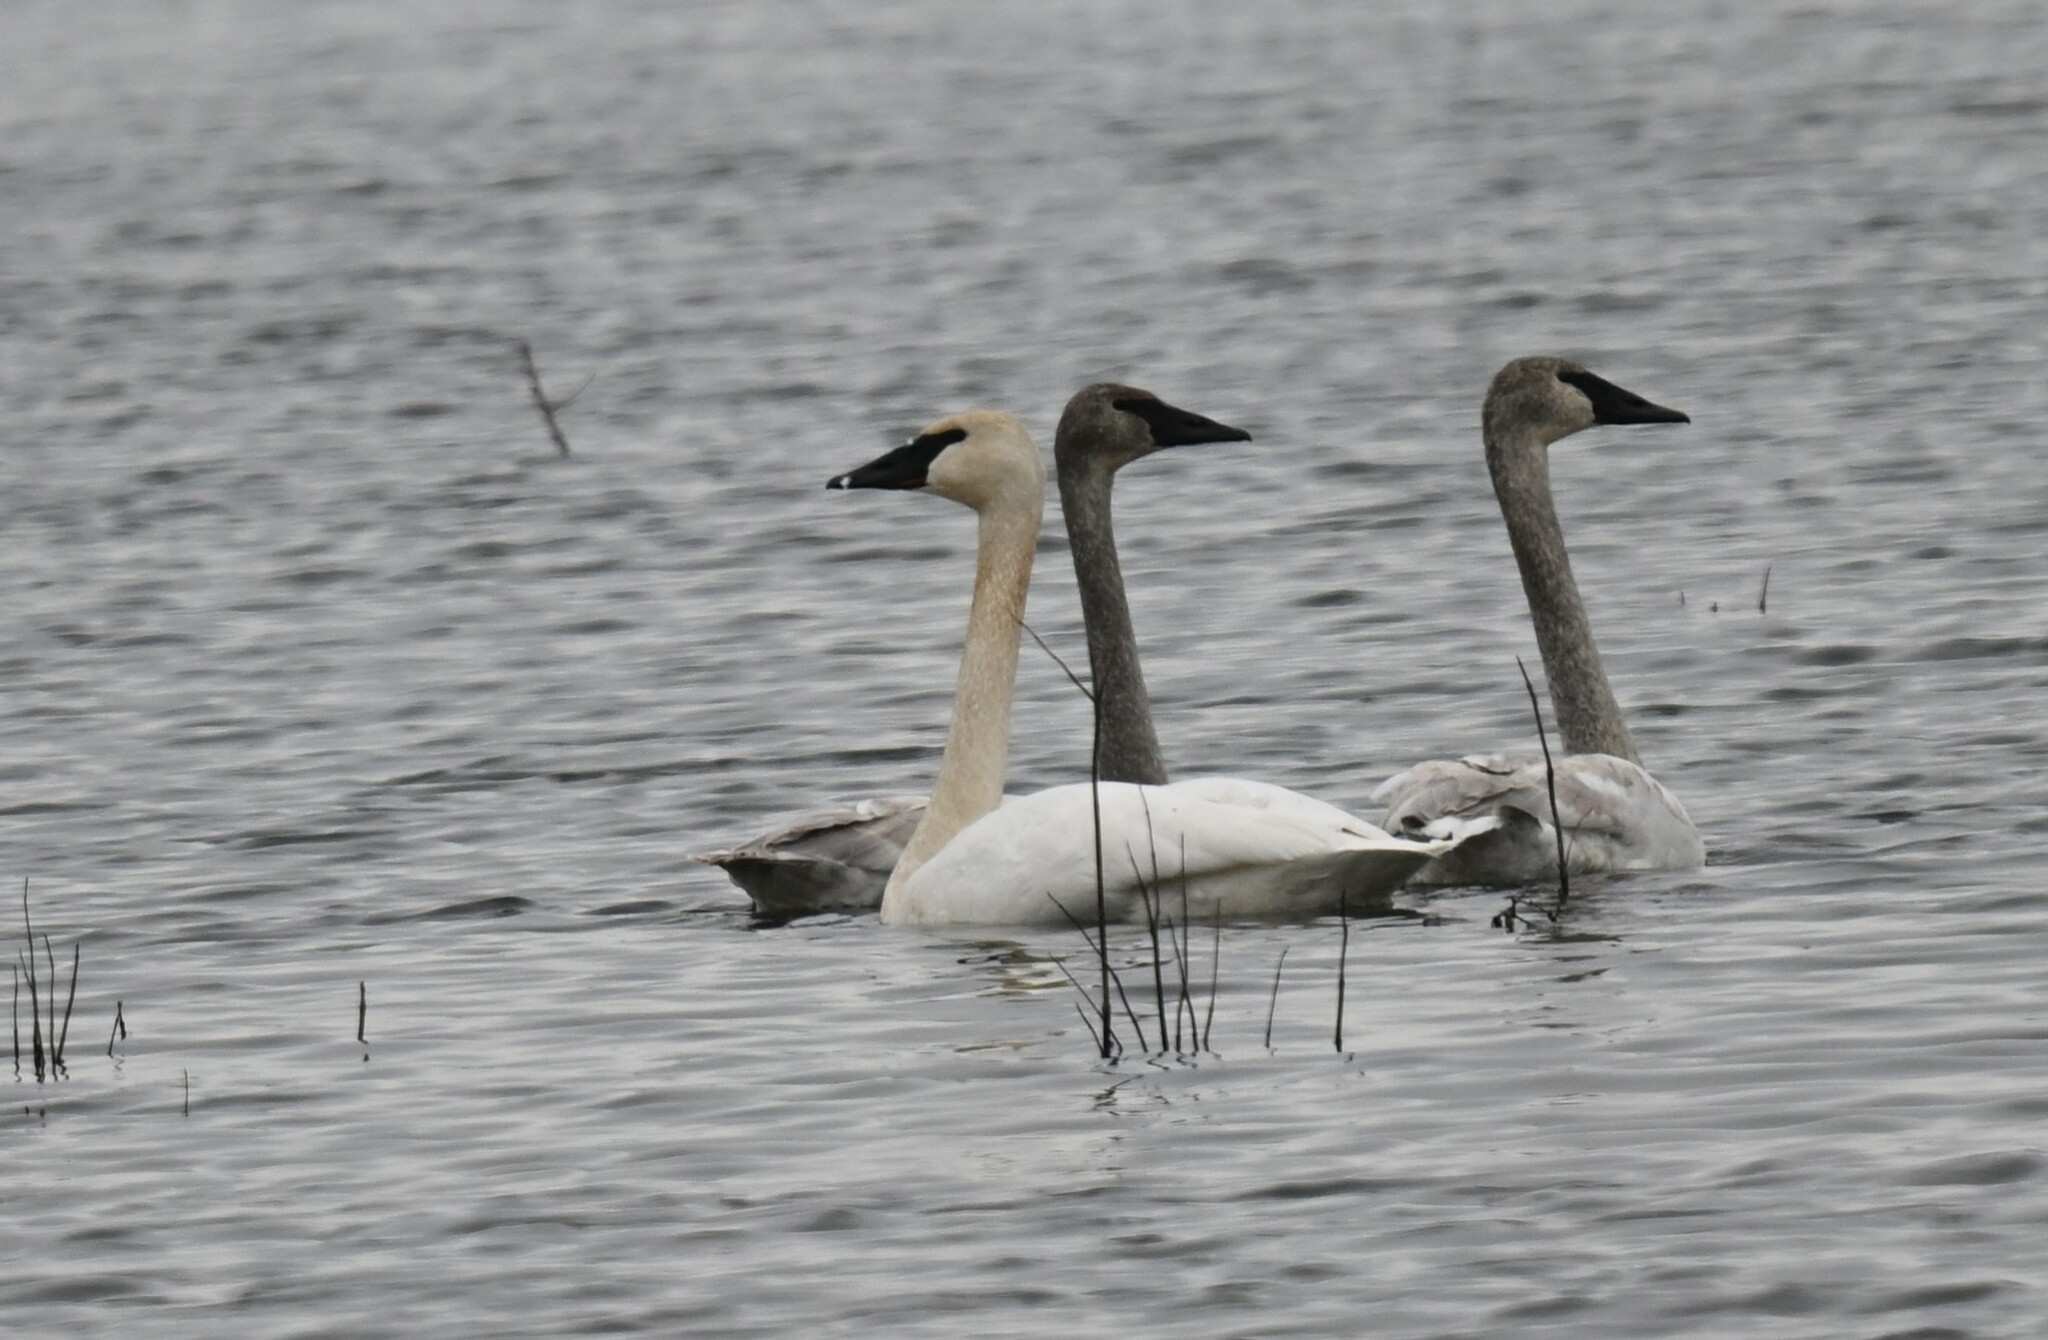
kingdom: Animalia
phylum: Chordata
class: Aves
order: Anseriformes
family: Anatidae
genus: Cygnus
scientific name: Cygnus buccinator
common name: Trumpeter swan
